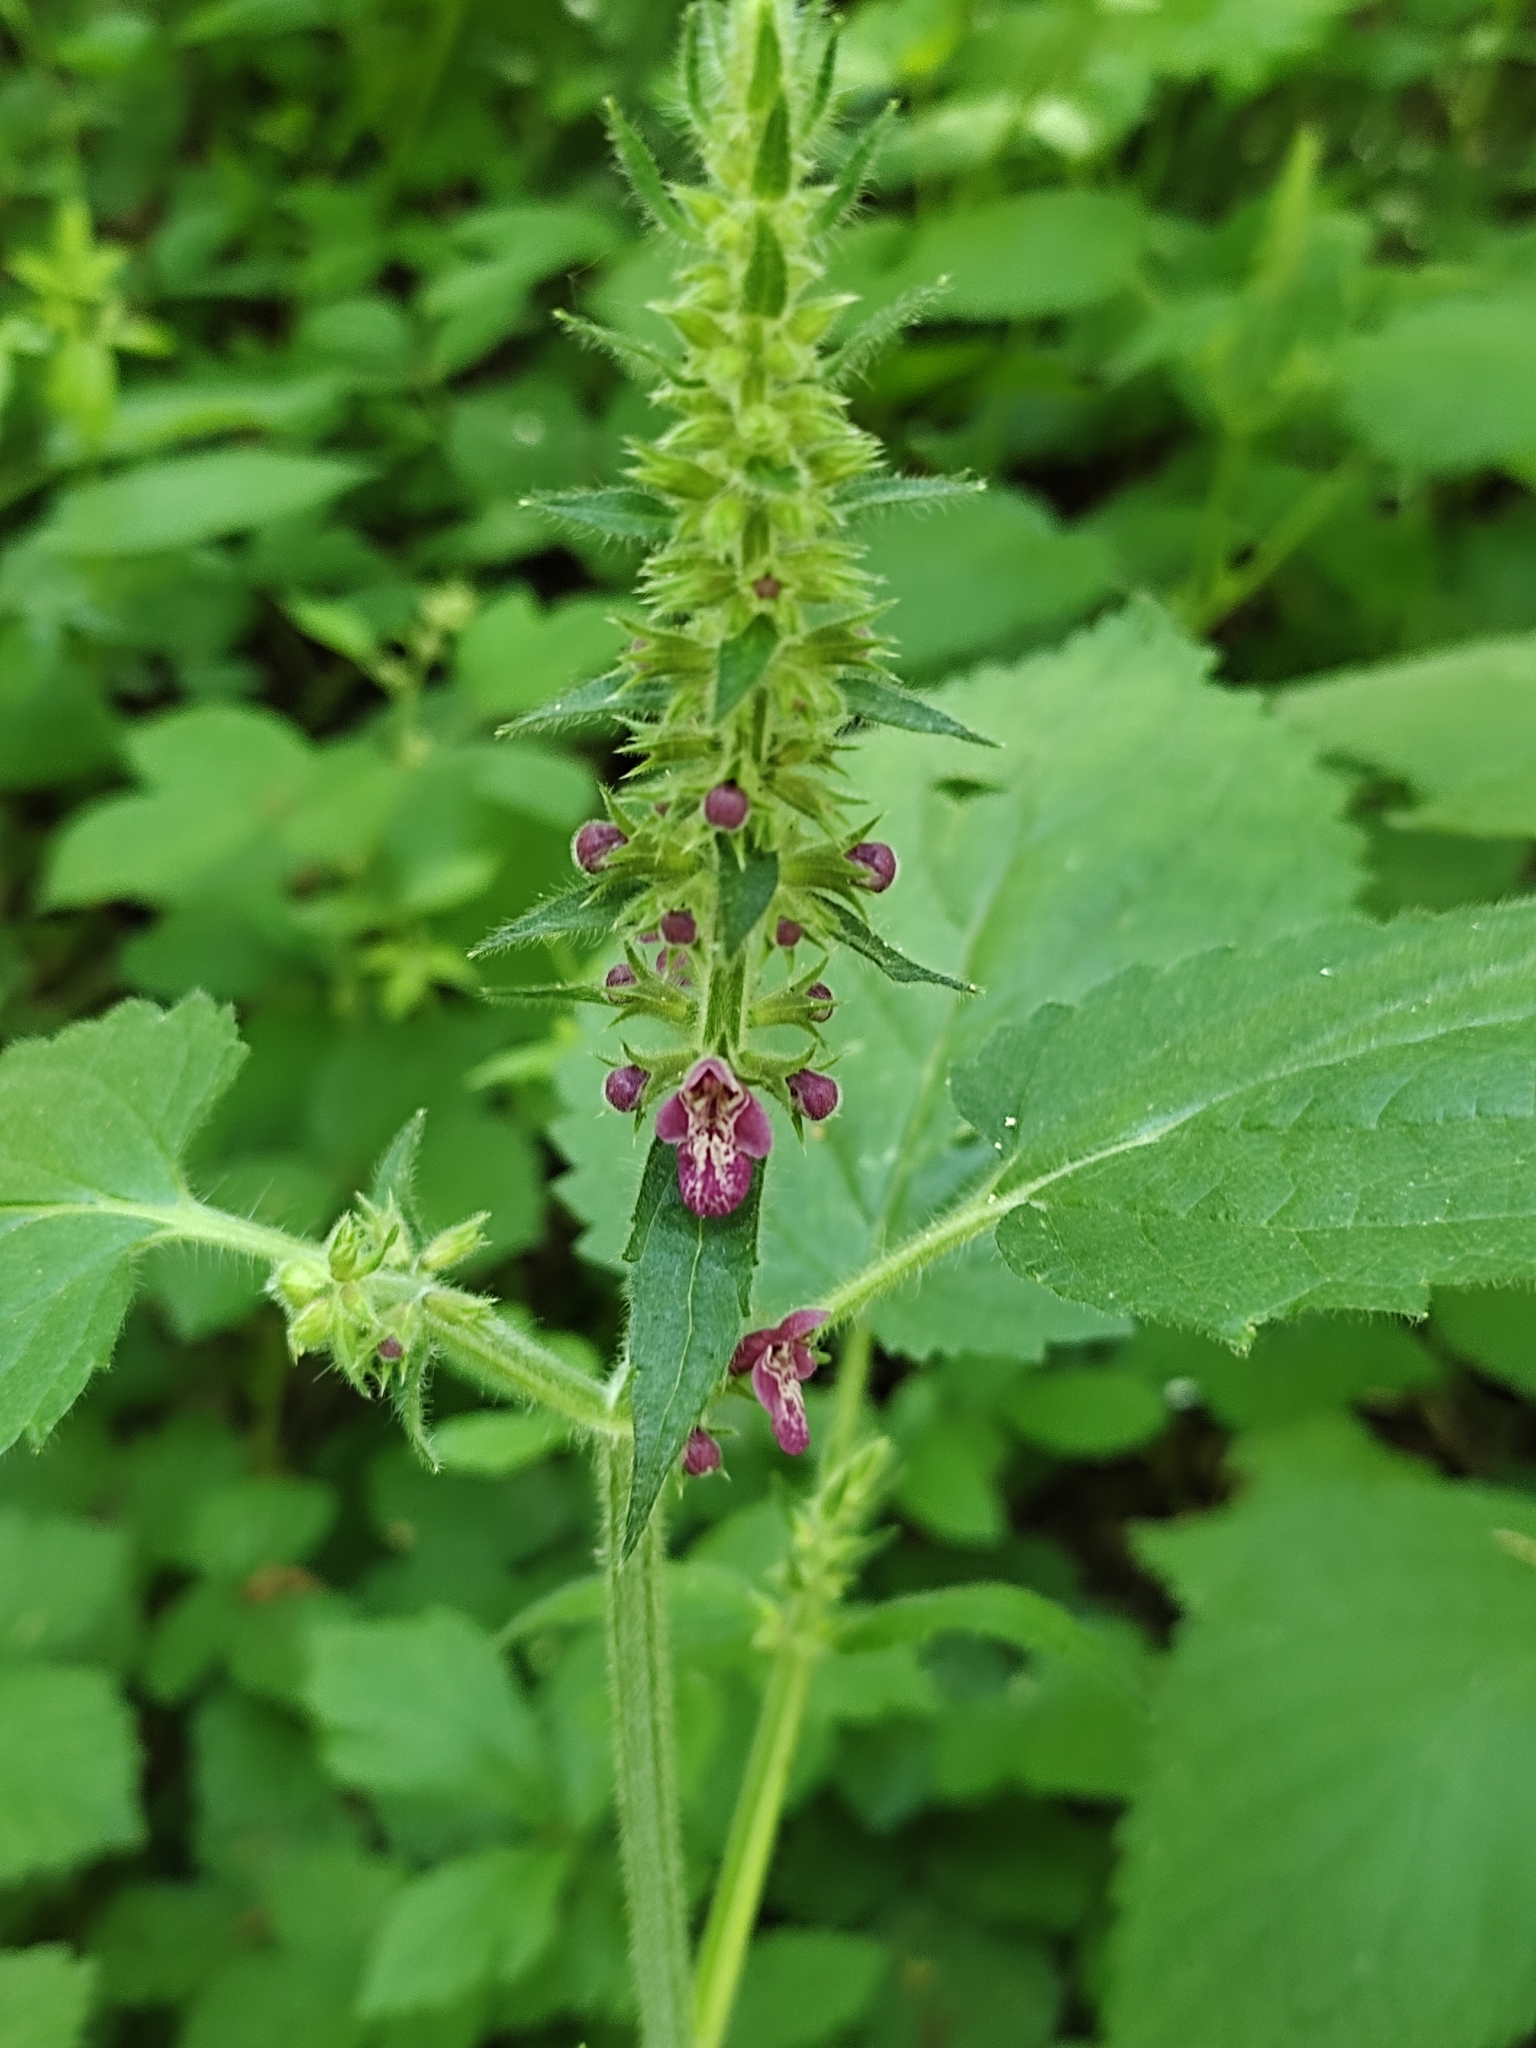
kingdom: Plantae
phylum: Tracheophyta
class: Magnoliopsida
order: Lamiales
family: Lamiaceae
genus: Stachys
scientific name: Stachys sylvatica
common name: Hedge woundwort
